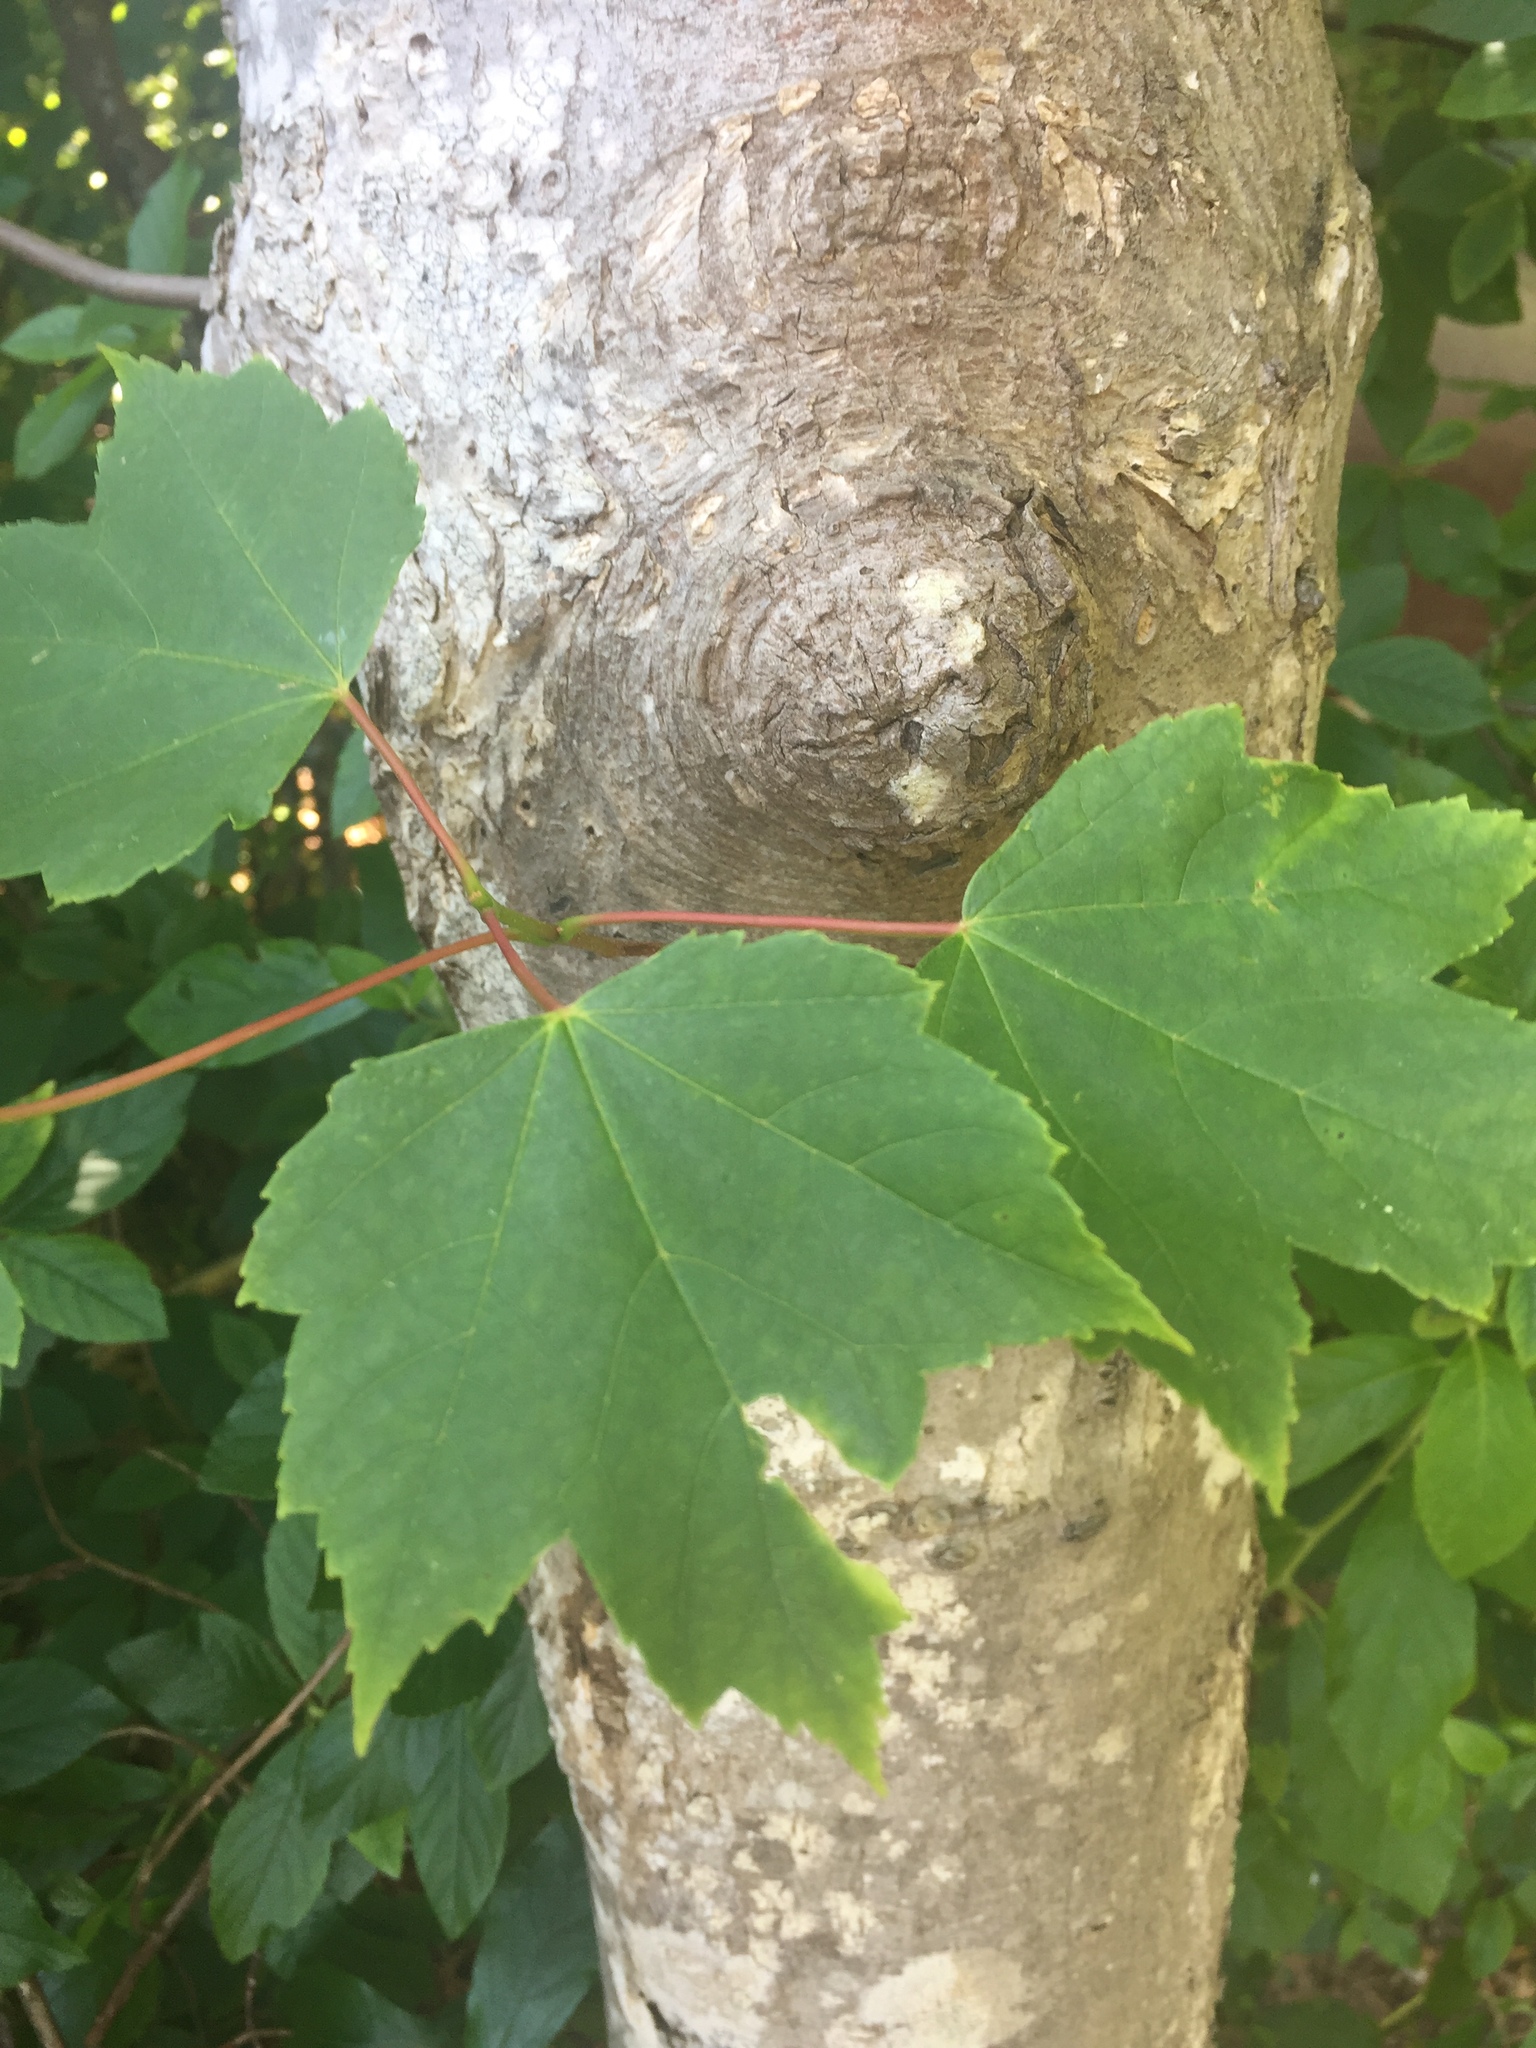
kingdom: Plantae
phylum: Tracheophyta
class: Magnoliopsida
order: Sapindales
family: Sapindaceae
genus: Acer
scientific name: Acer rubrum
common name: Red maple
